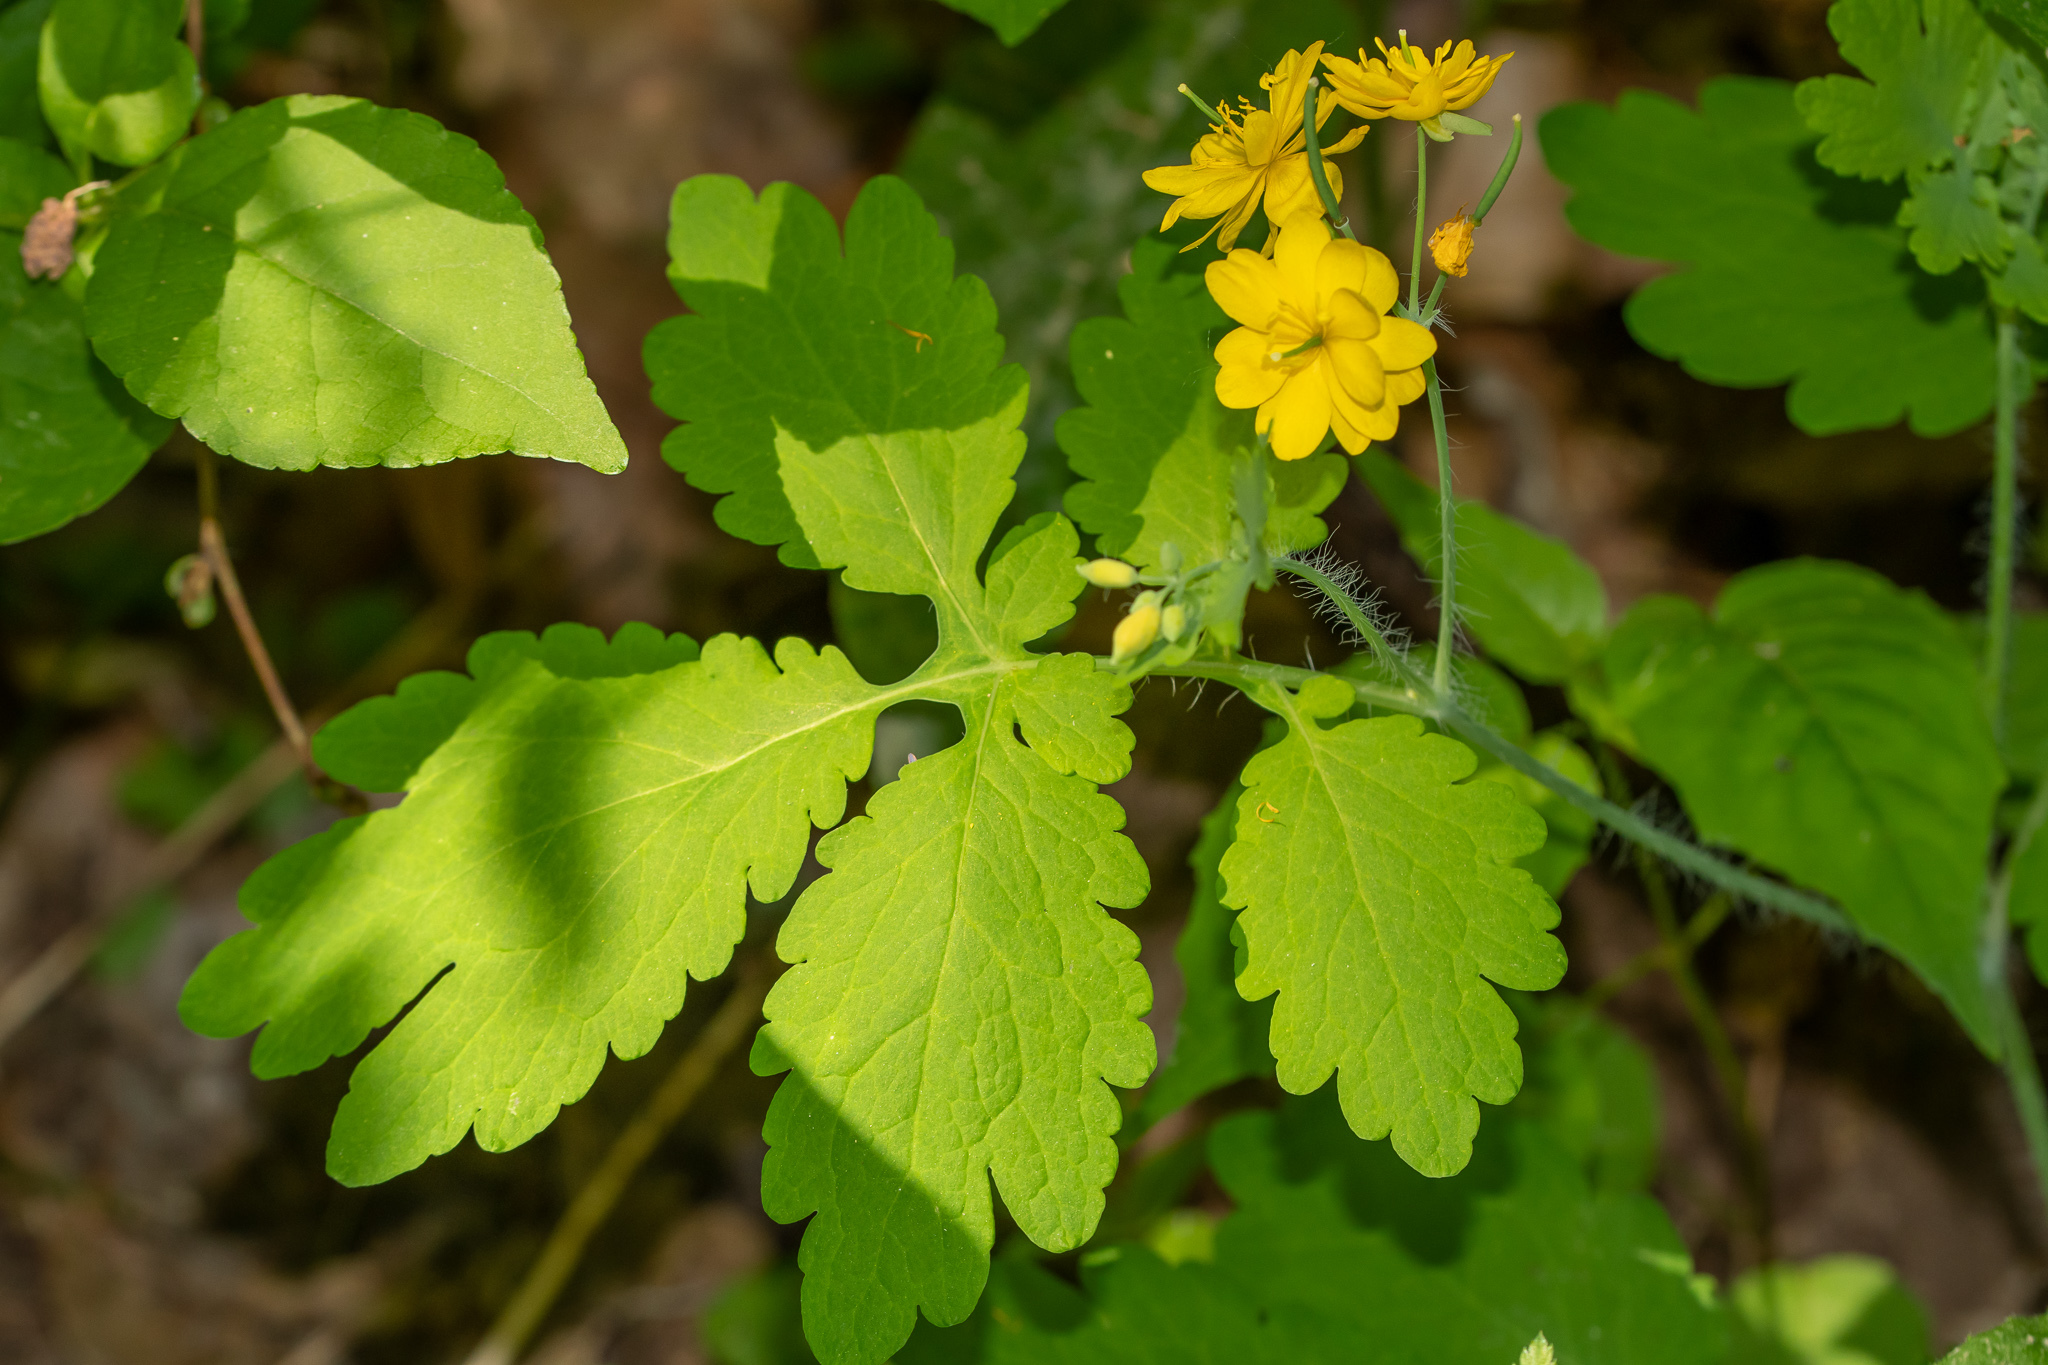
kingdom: Plantae
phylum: Tracheophyta
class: Magnoliopsida
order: Ranunculales
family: Papaveraceae
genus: Chelidonium
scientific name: Chelidonium majus
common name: Greater celandine
